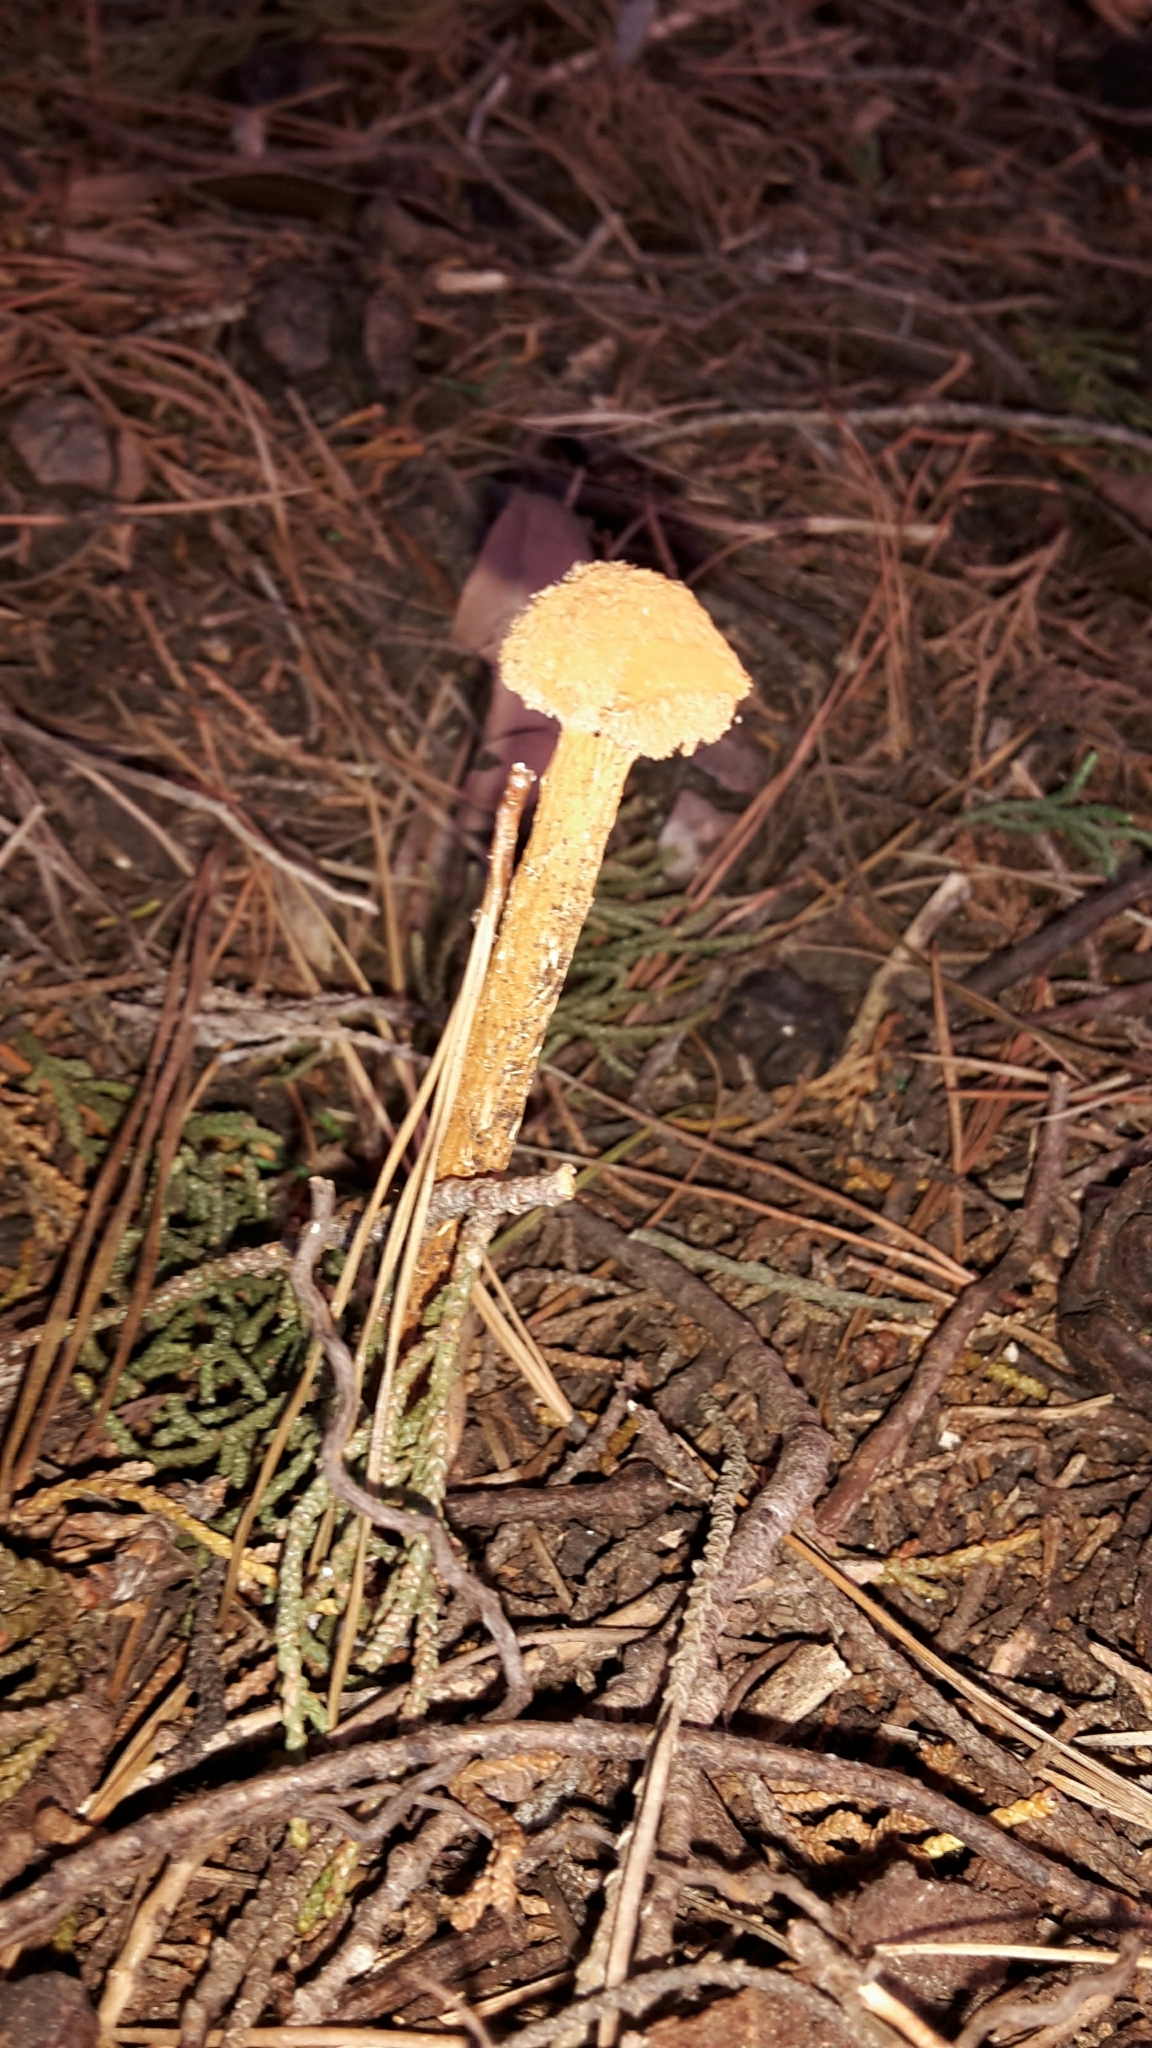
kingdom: Fungi
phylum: Basidiomycota
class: Agaricomycetes
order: Agaricales
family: Agaricaceae
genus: Battarrea
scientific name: Battarrea phalloides
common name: Sandy stiltball
